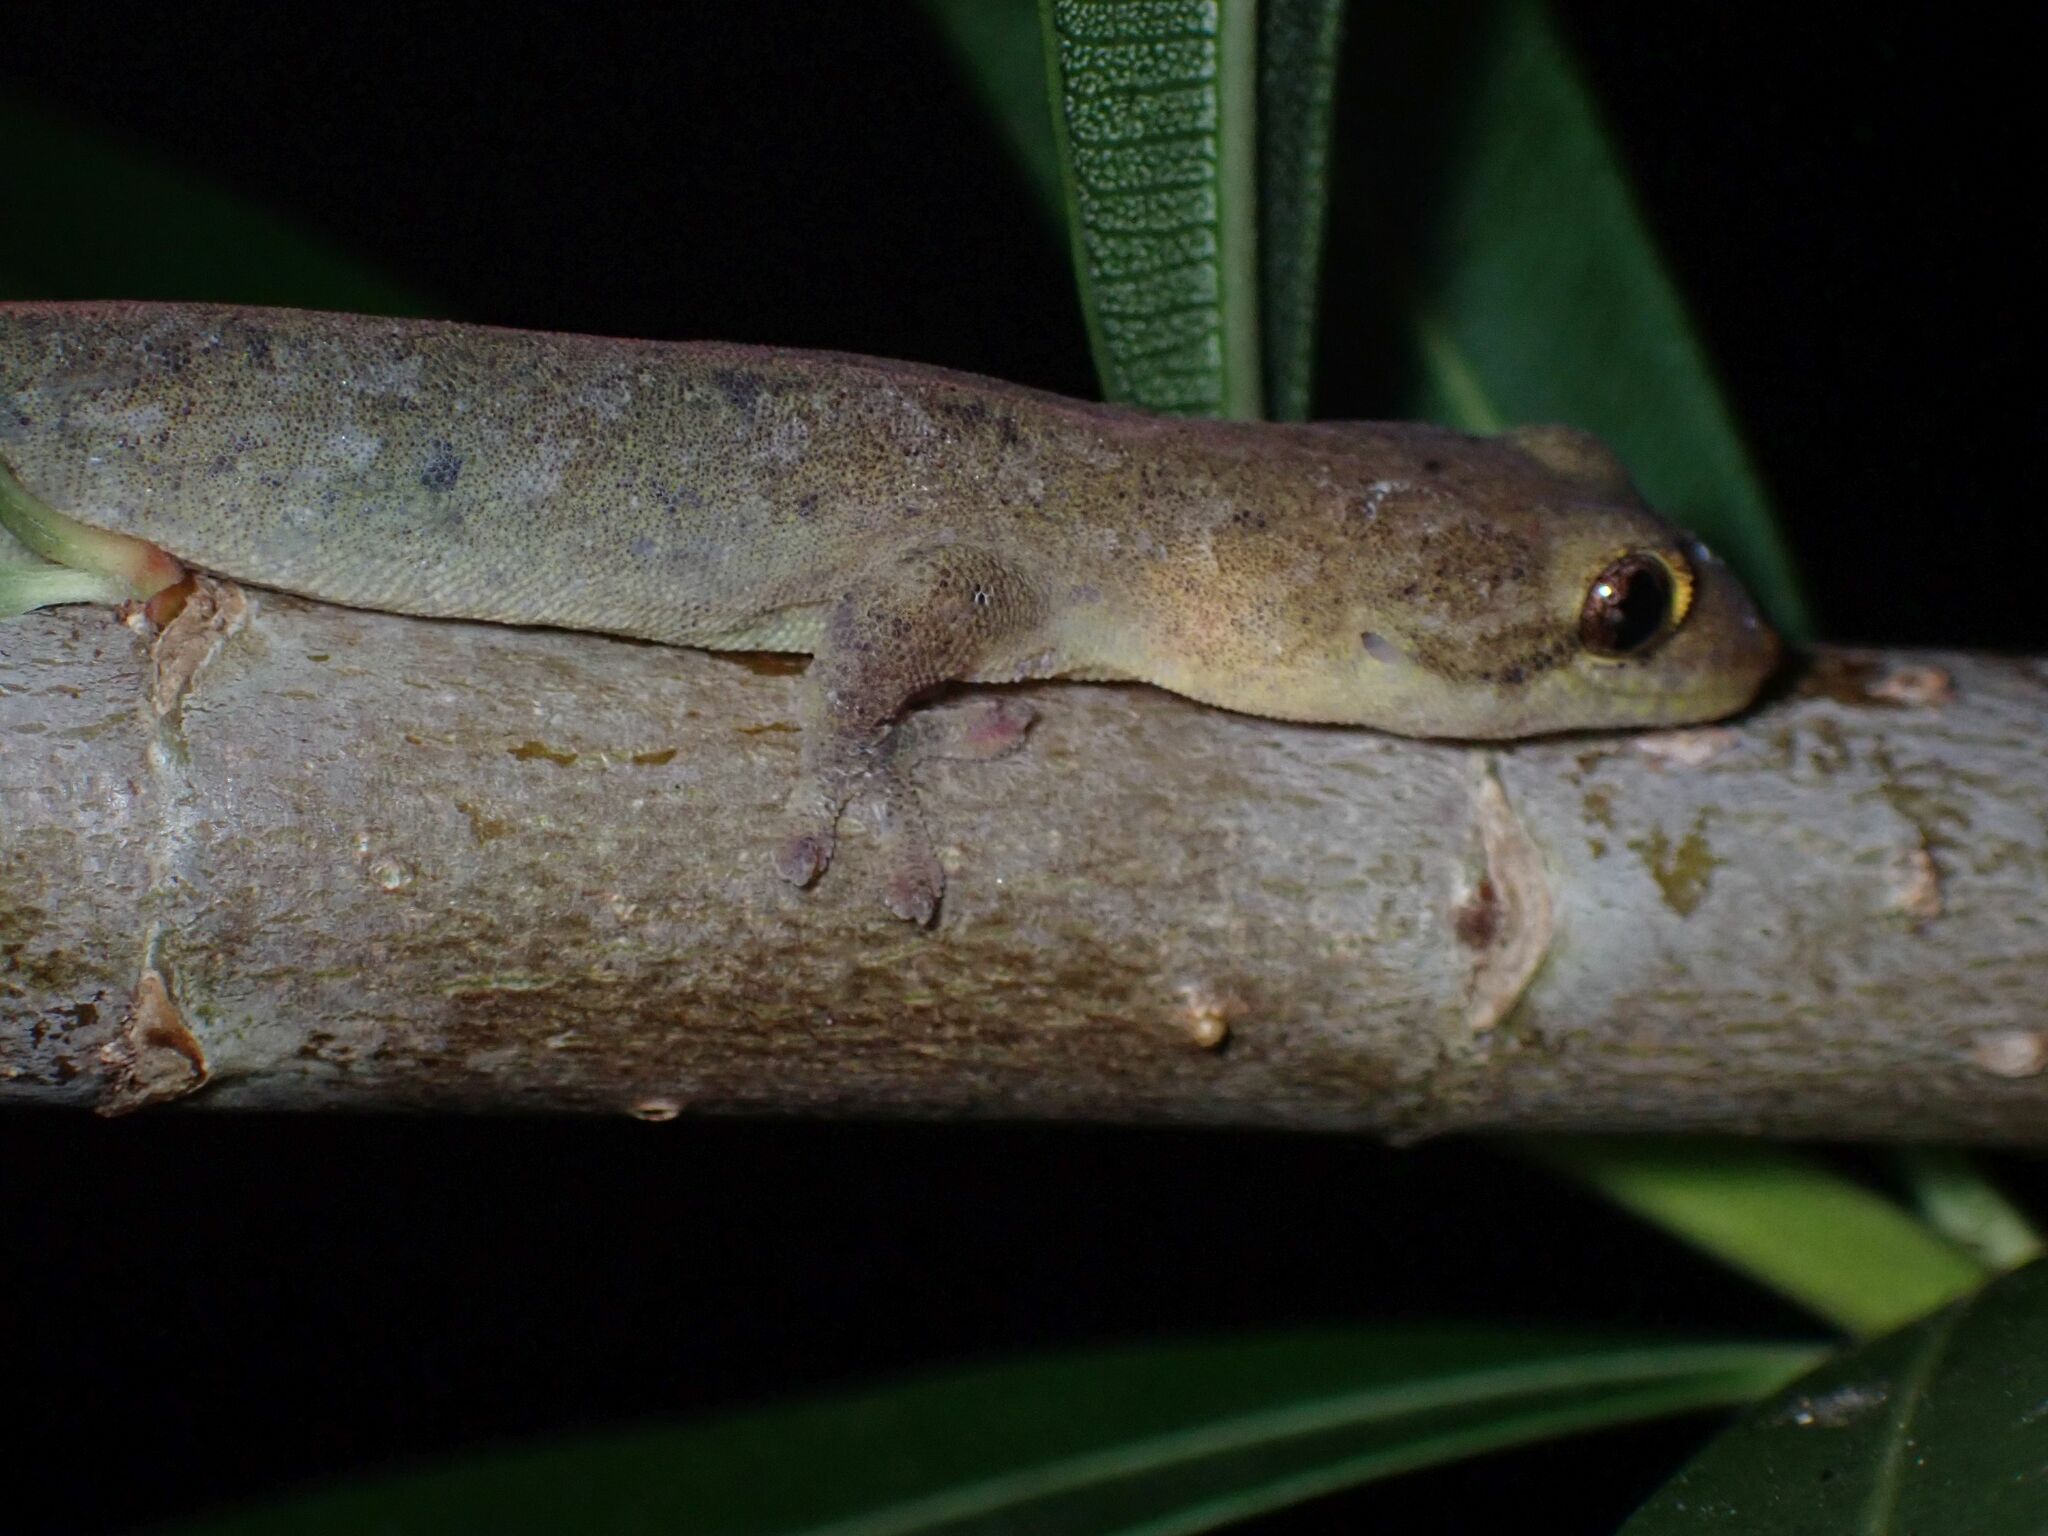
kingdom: Animalia
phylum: Chordata
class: Squamata
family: Gekkonidae
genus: Lepidodactylus
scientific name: Lepidodactylus vanuatuensis
